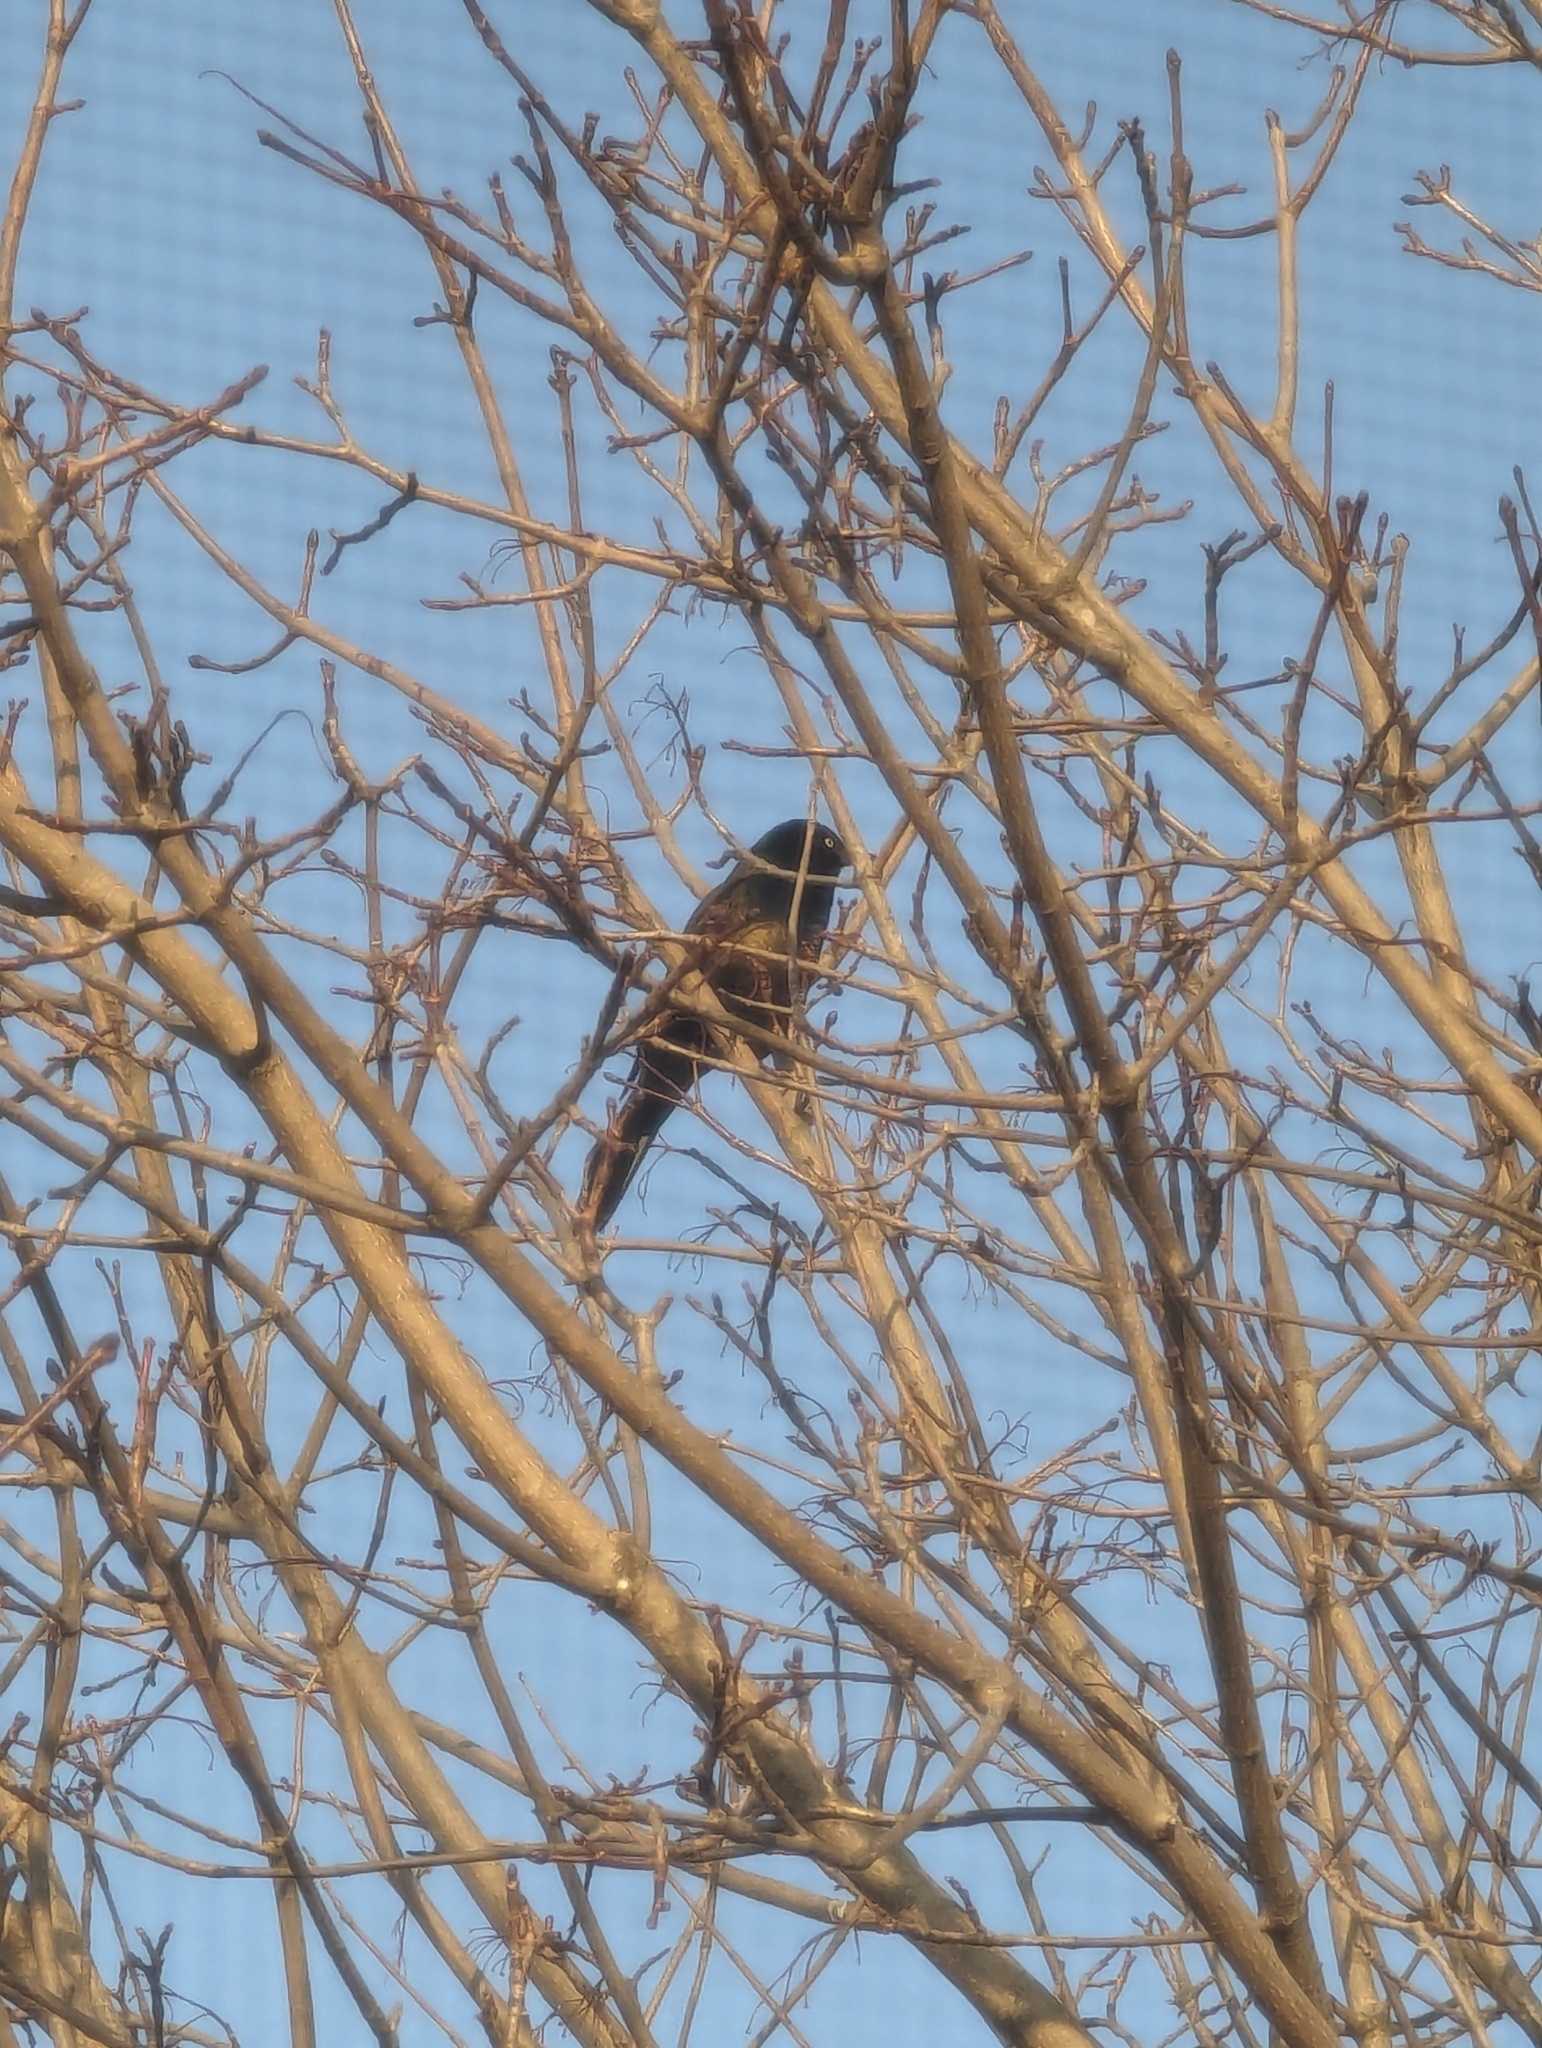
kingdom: Animalia
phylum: Chordata
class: Aves
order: Passeriformes
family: Icteridae
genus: Quiscalus
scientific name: Quiscalus quiscula
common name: Common grackle
